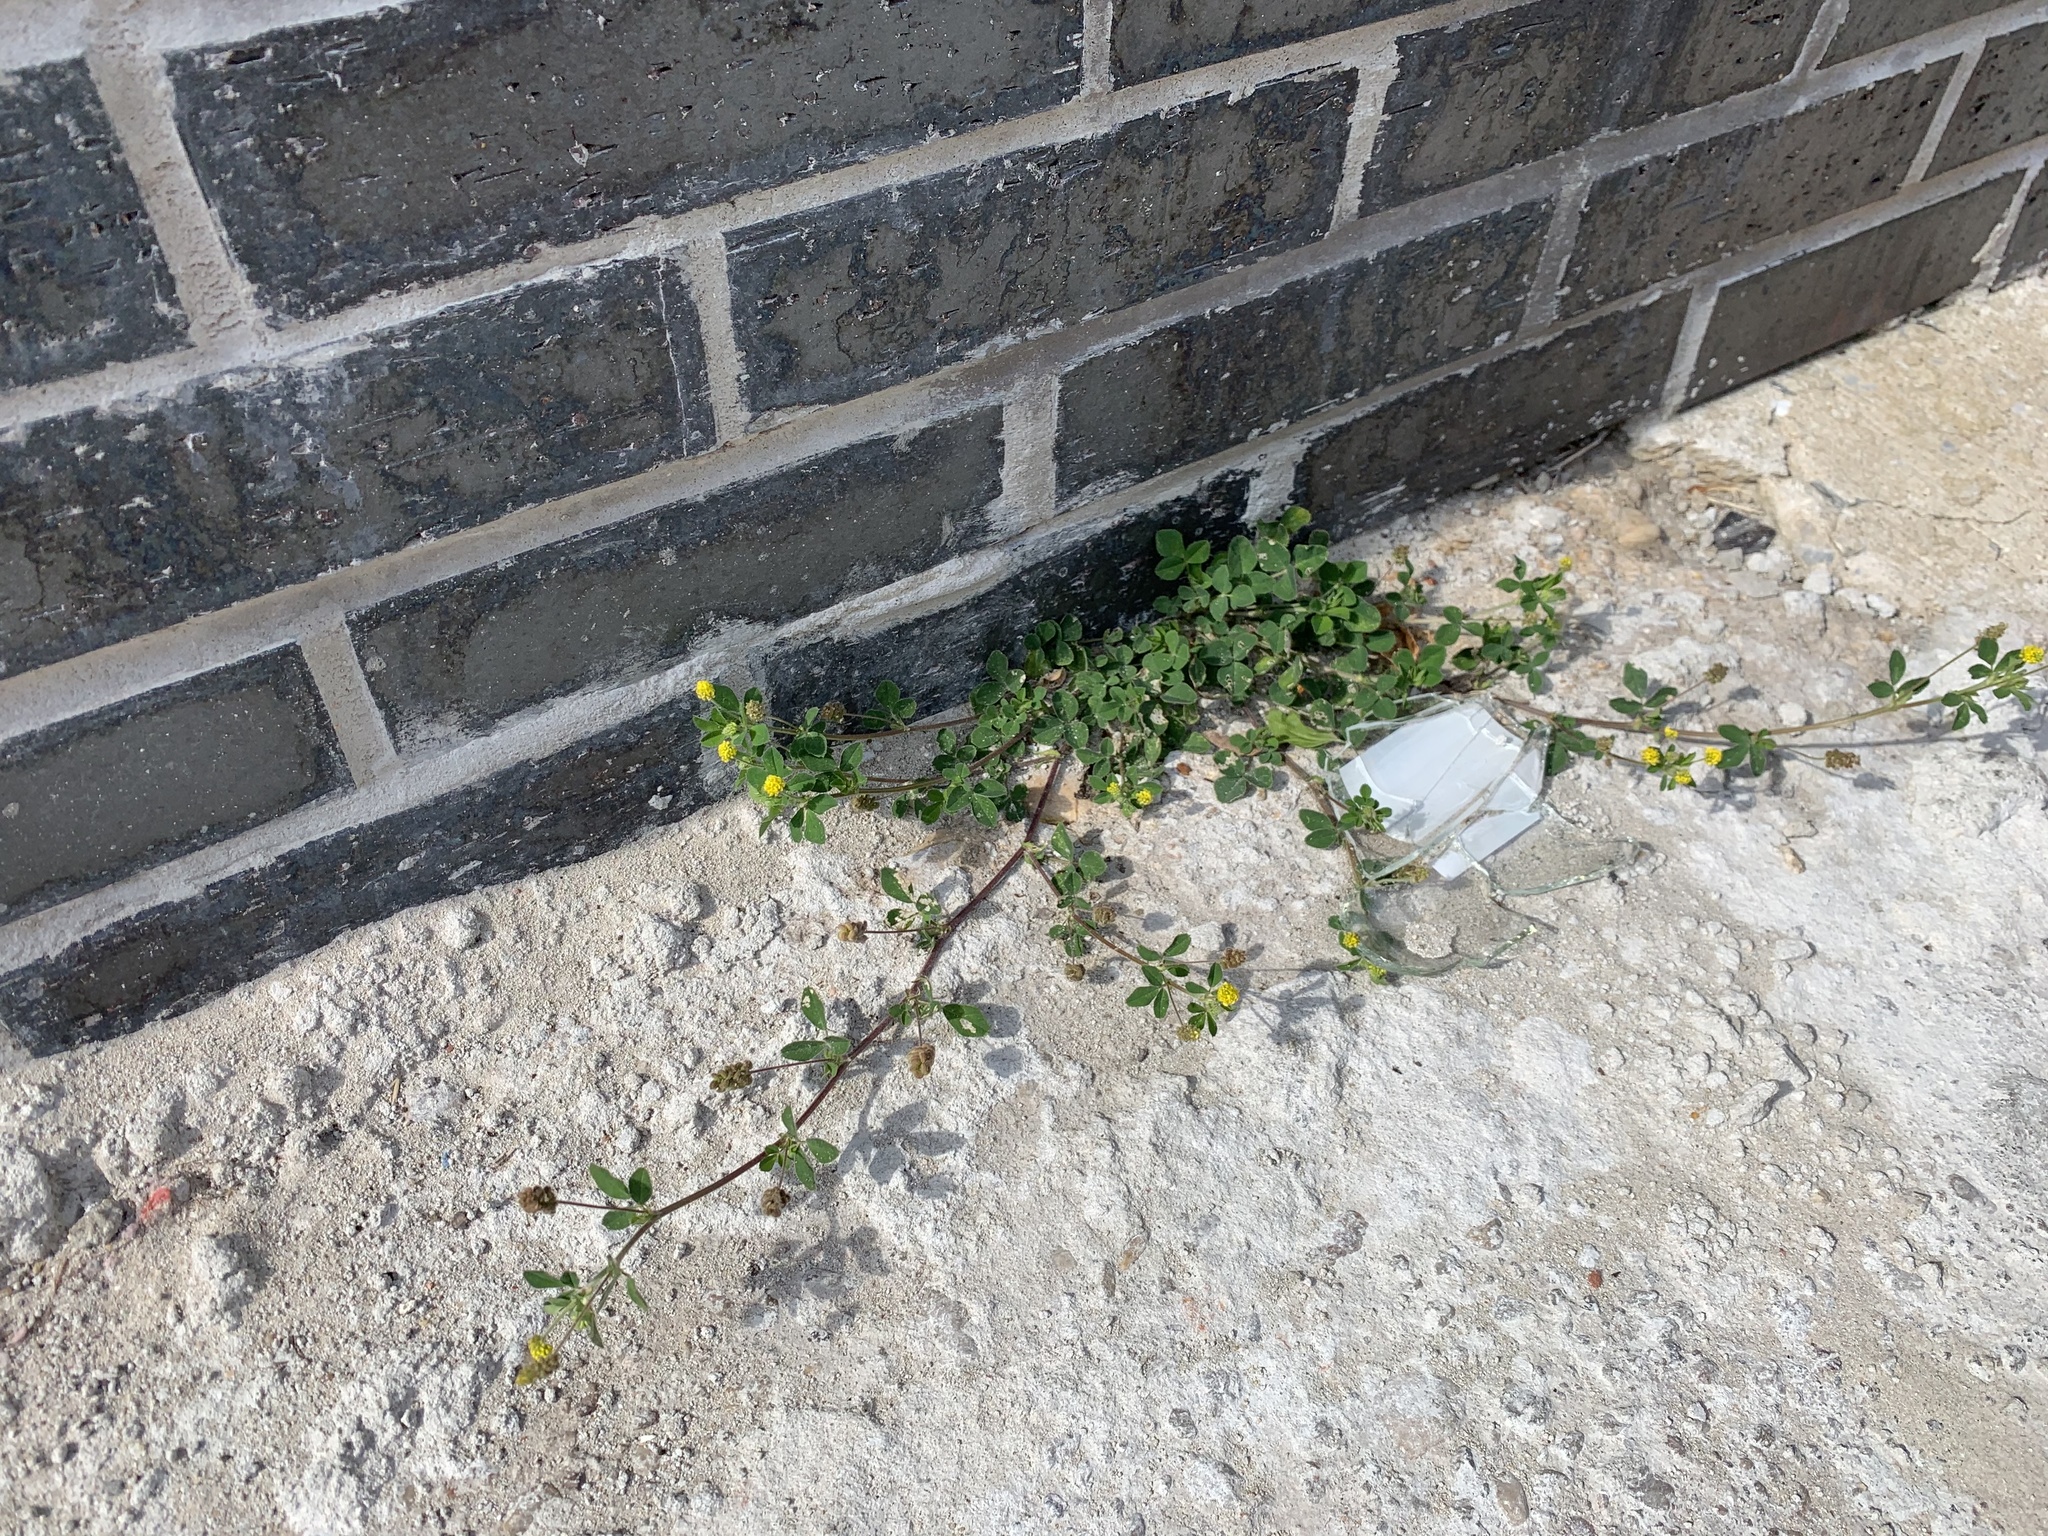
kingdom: Plantae
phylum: Tracheophyta
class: Magnoliopsida
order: Fabales
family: Fabaceae
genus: Medicago
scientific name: Medicago lupulina
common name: Black medick
